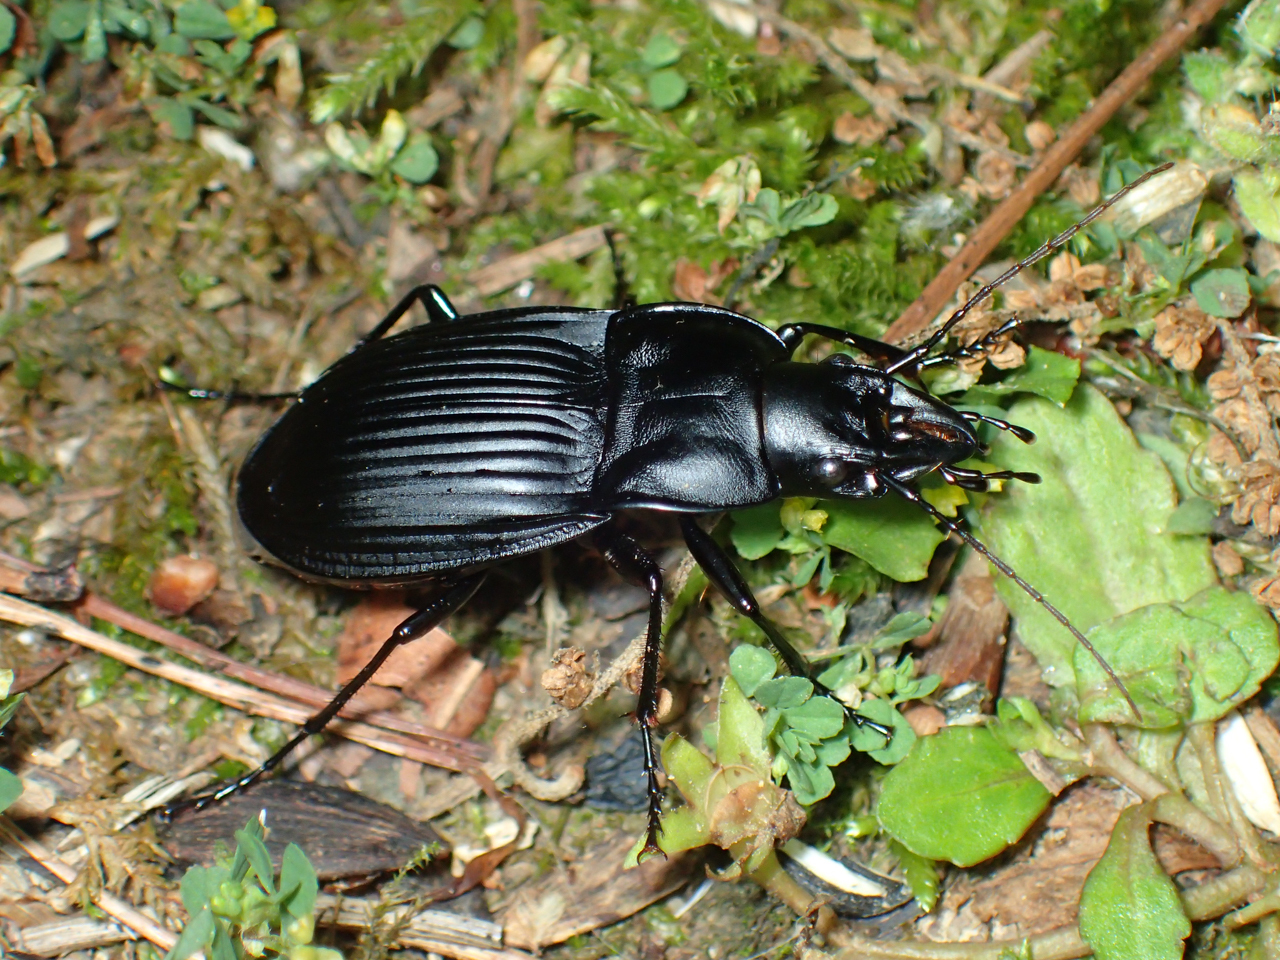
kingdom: Animalia
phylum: Arthropoda
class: Insecta
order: Coleoptera
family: Carabidae
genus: Dicaelus
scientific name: Dicaelus dilatatus
